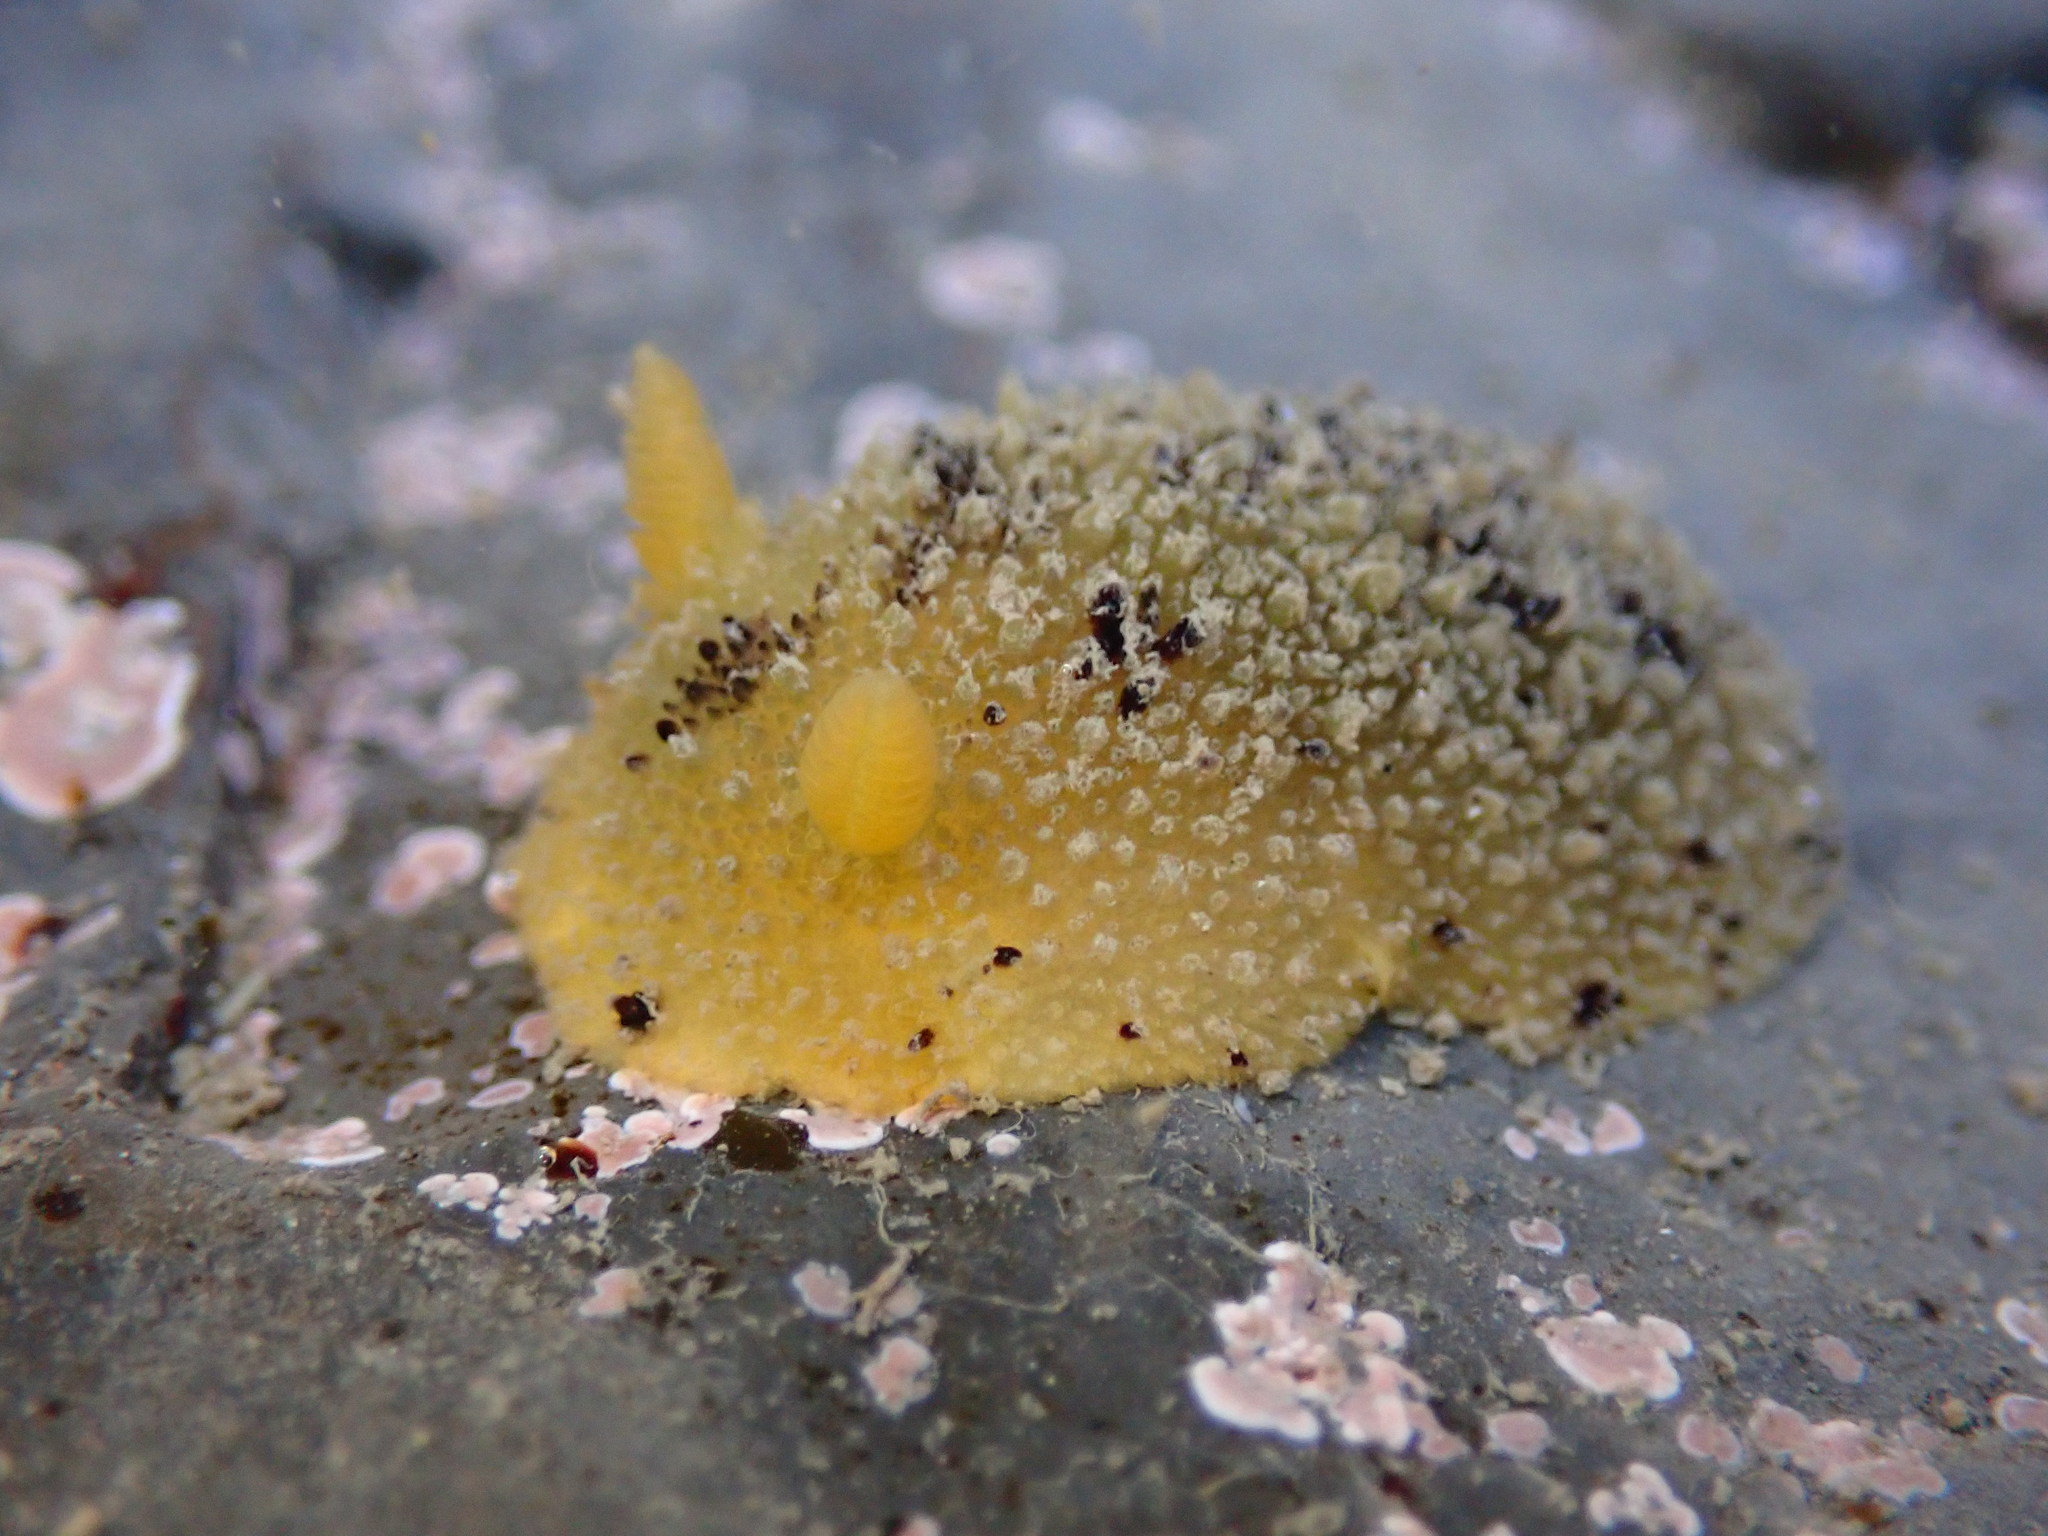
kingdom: Animalia
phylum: Mollusca
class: Gastropoda
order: Nudibranchia
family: Dorididae
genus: Doris
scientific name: Doris montereyensis
